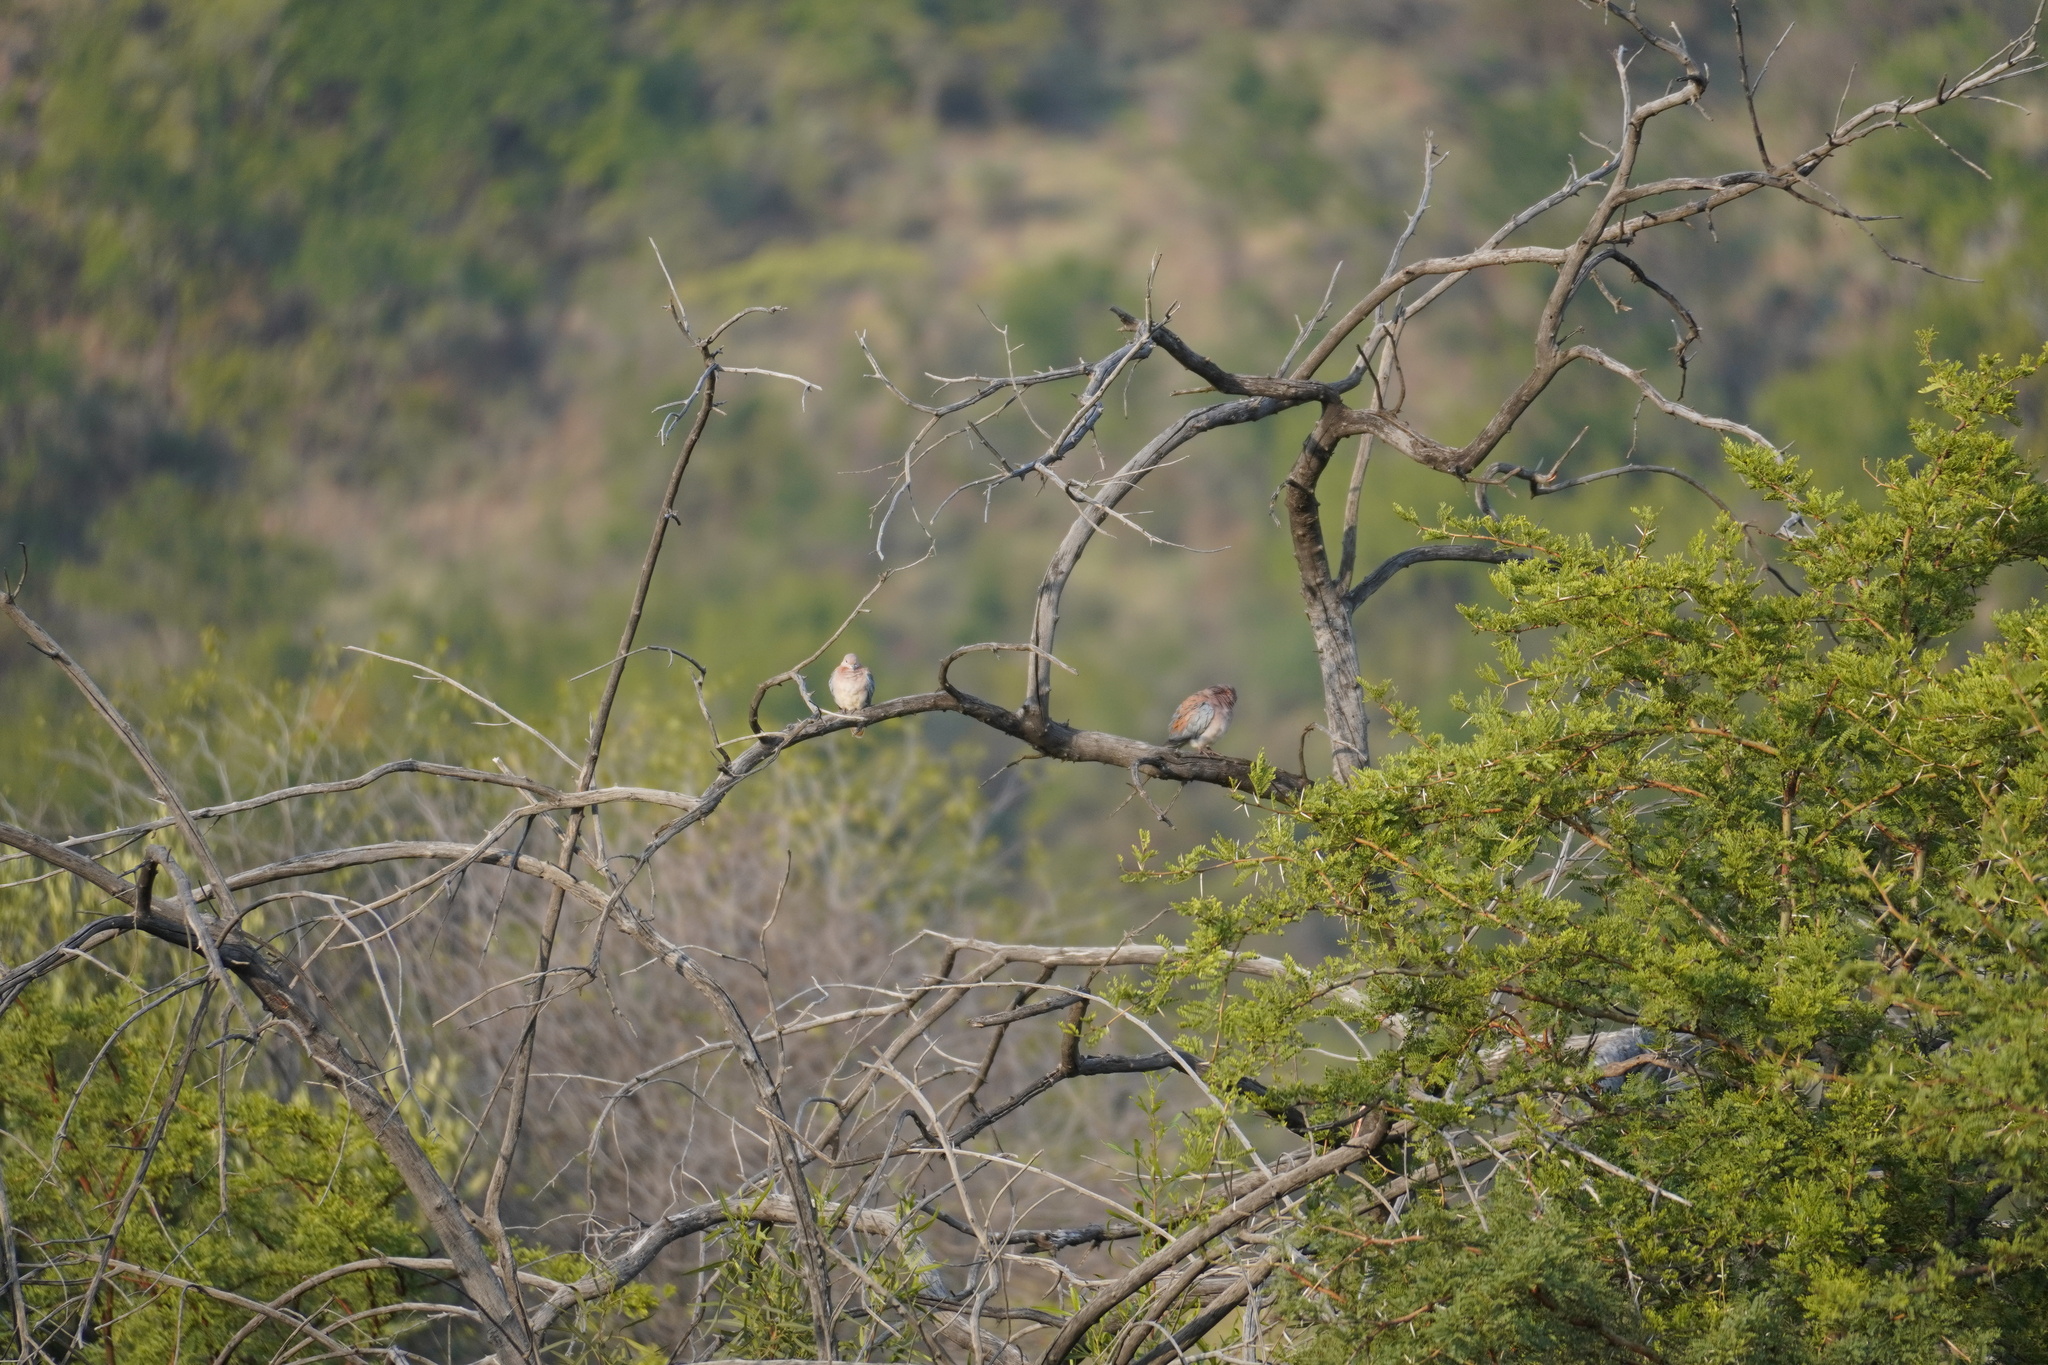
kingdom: Animalia
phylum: Chordata
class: Aves
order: Columbiformes
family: Columbidae
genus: Spilopelia
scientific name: Spilopelia senegalensis
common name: Laughing dove
